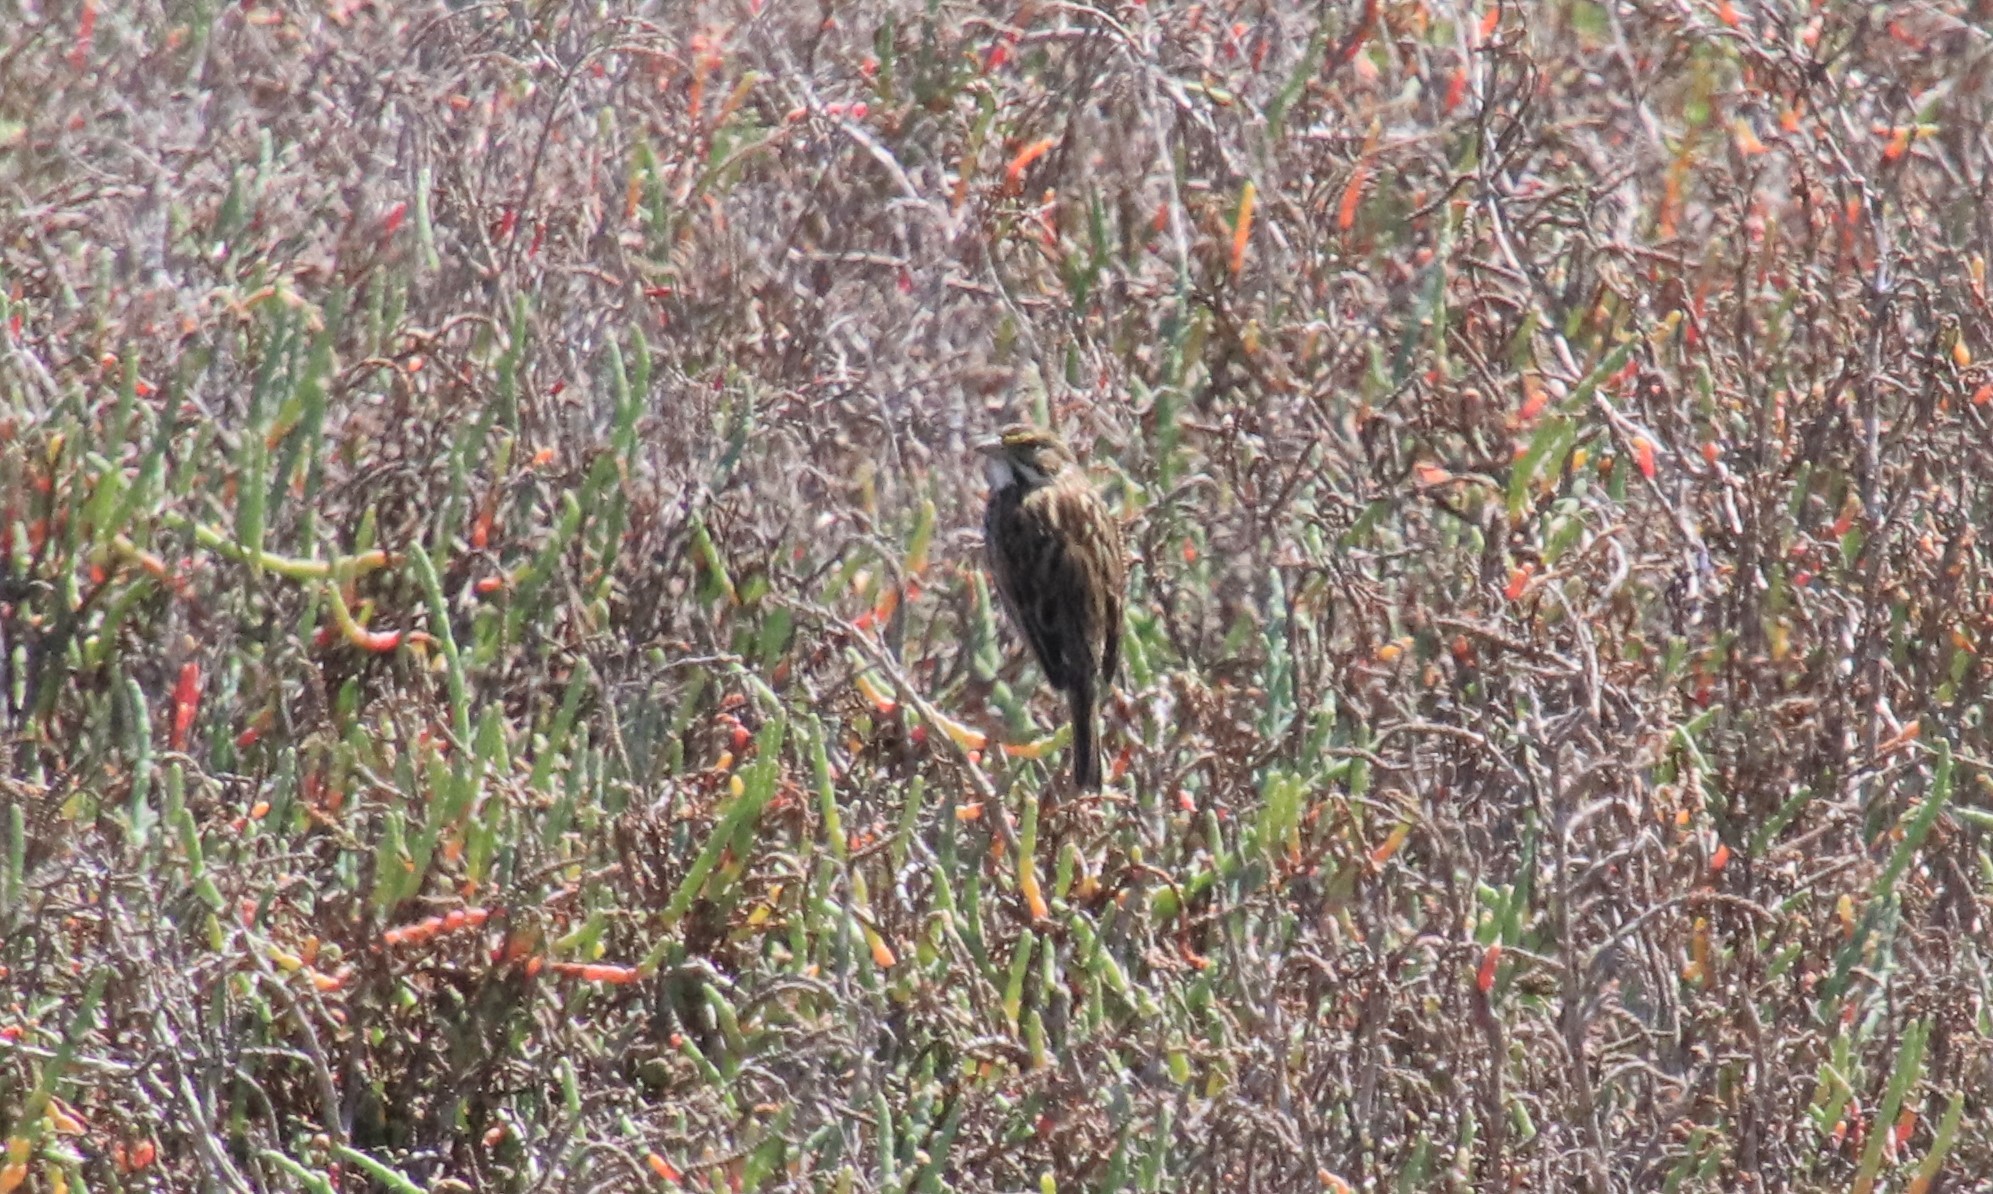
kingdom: Animalia
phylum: Chordata
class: Aves
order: Passeriformes
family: Passerellidae
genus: Passerculus
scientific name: Passerculus sandwichensis
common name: Savannah sparrow
